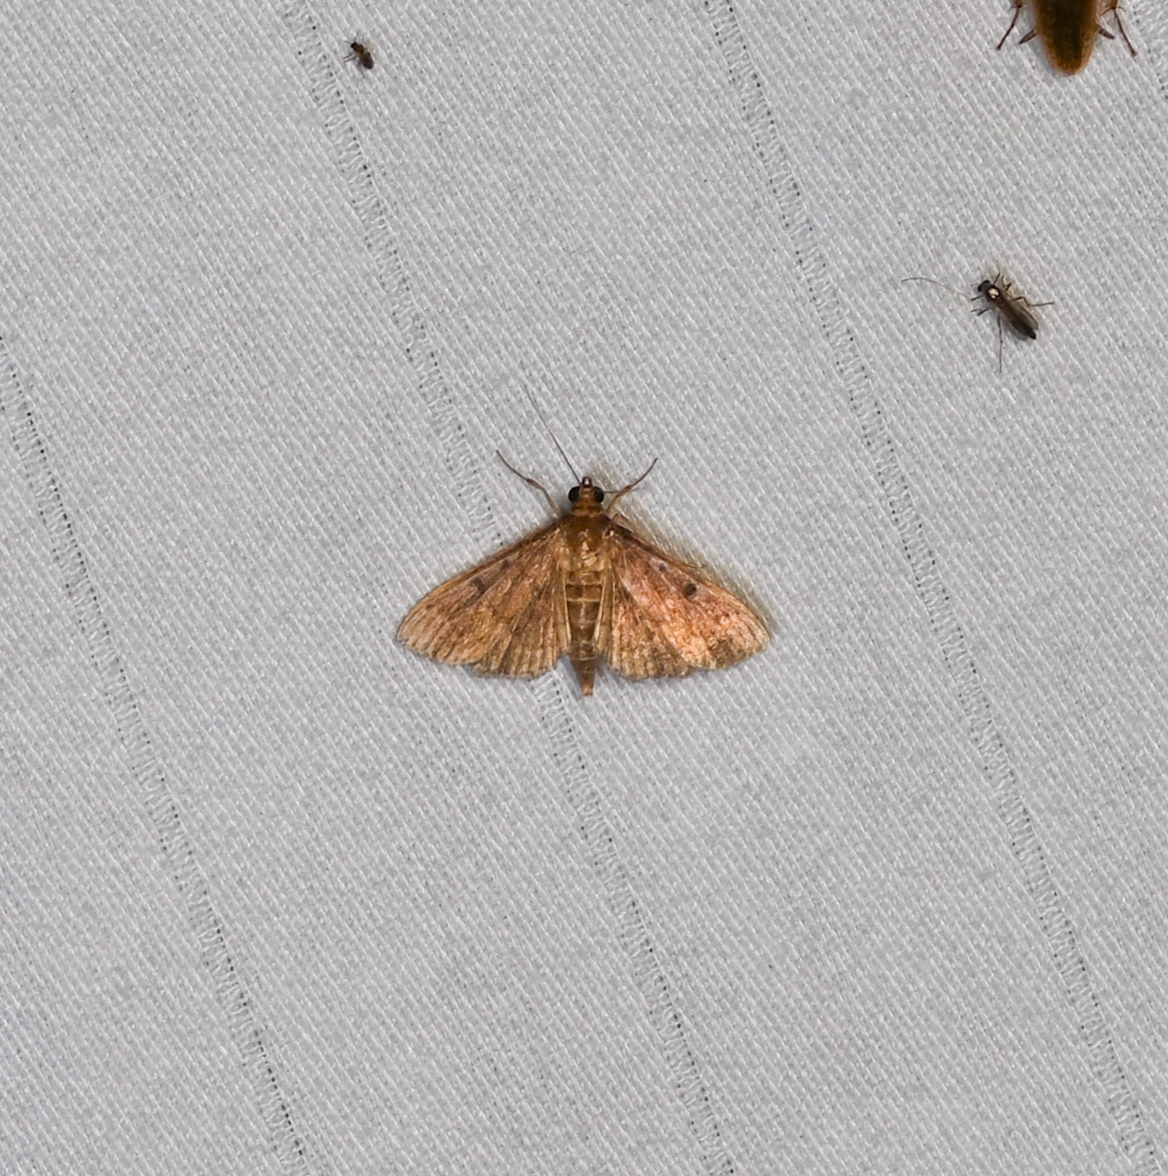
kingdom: Animalia
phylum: Arthropoda
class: Insecta
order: Lepidoptera
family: Crambidae
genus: Herpetogramma
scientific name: Herpetogramma phaeopteralis
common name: Dusky herpetogramma moth
